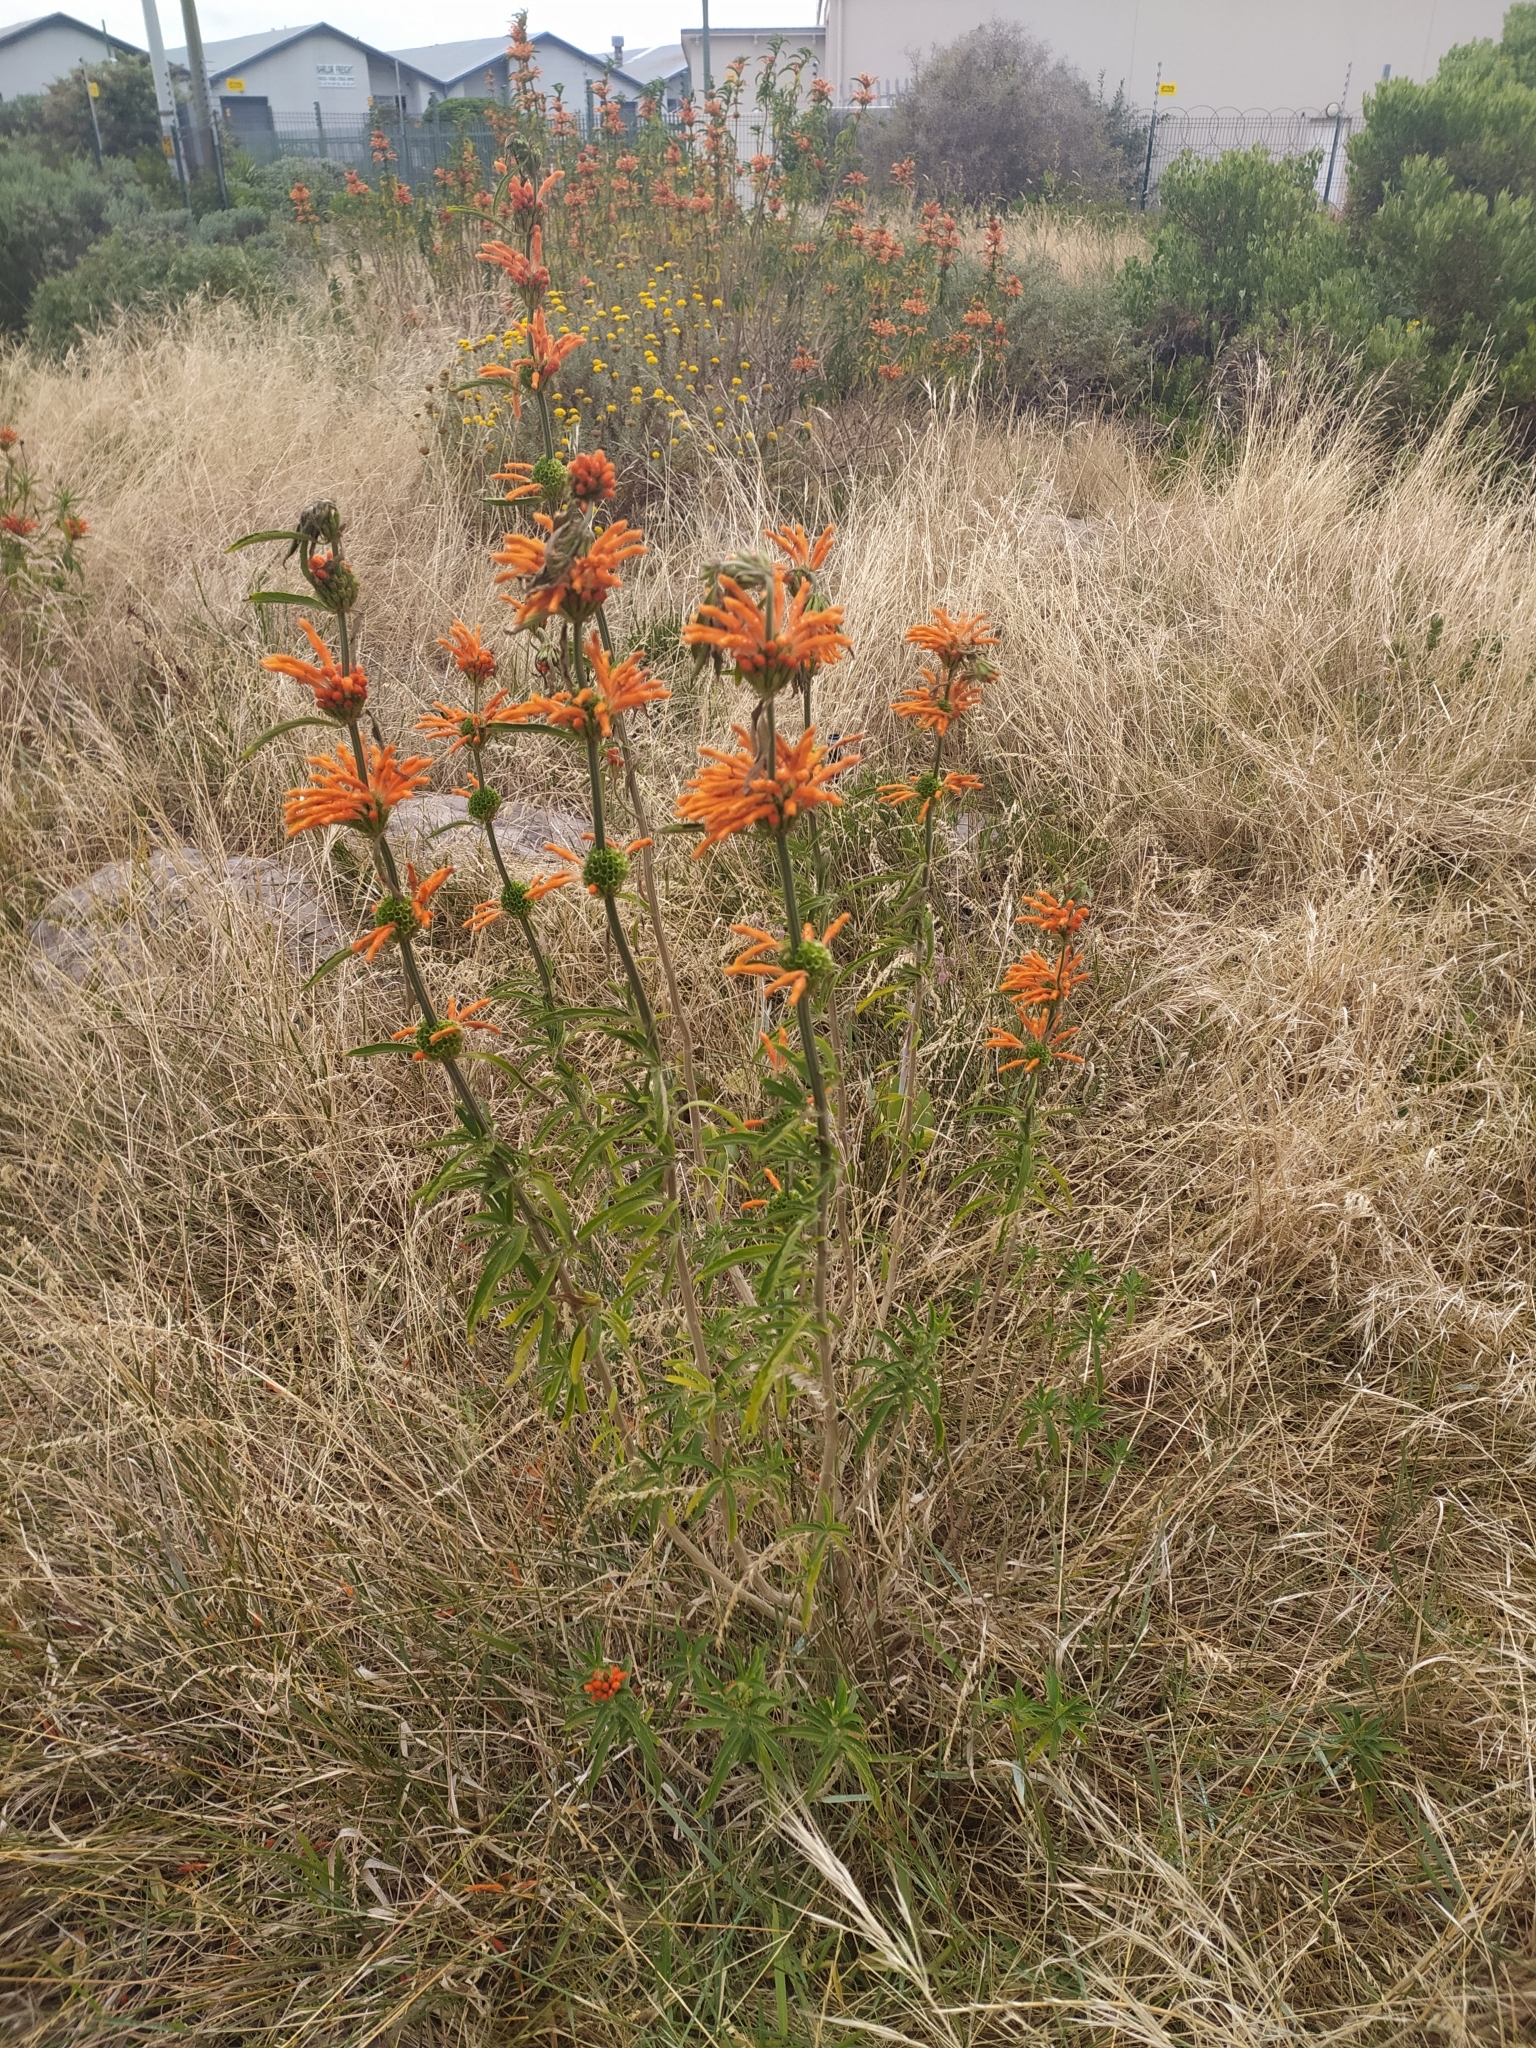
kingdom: Plantae
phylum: Tracheophyta
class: Magnoliopsida
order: Lamiales
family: Lamiaceae
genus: Leonotis
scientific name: Leonotis leonurus
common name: Lion's ear
